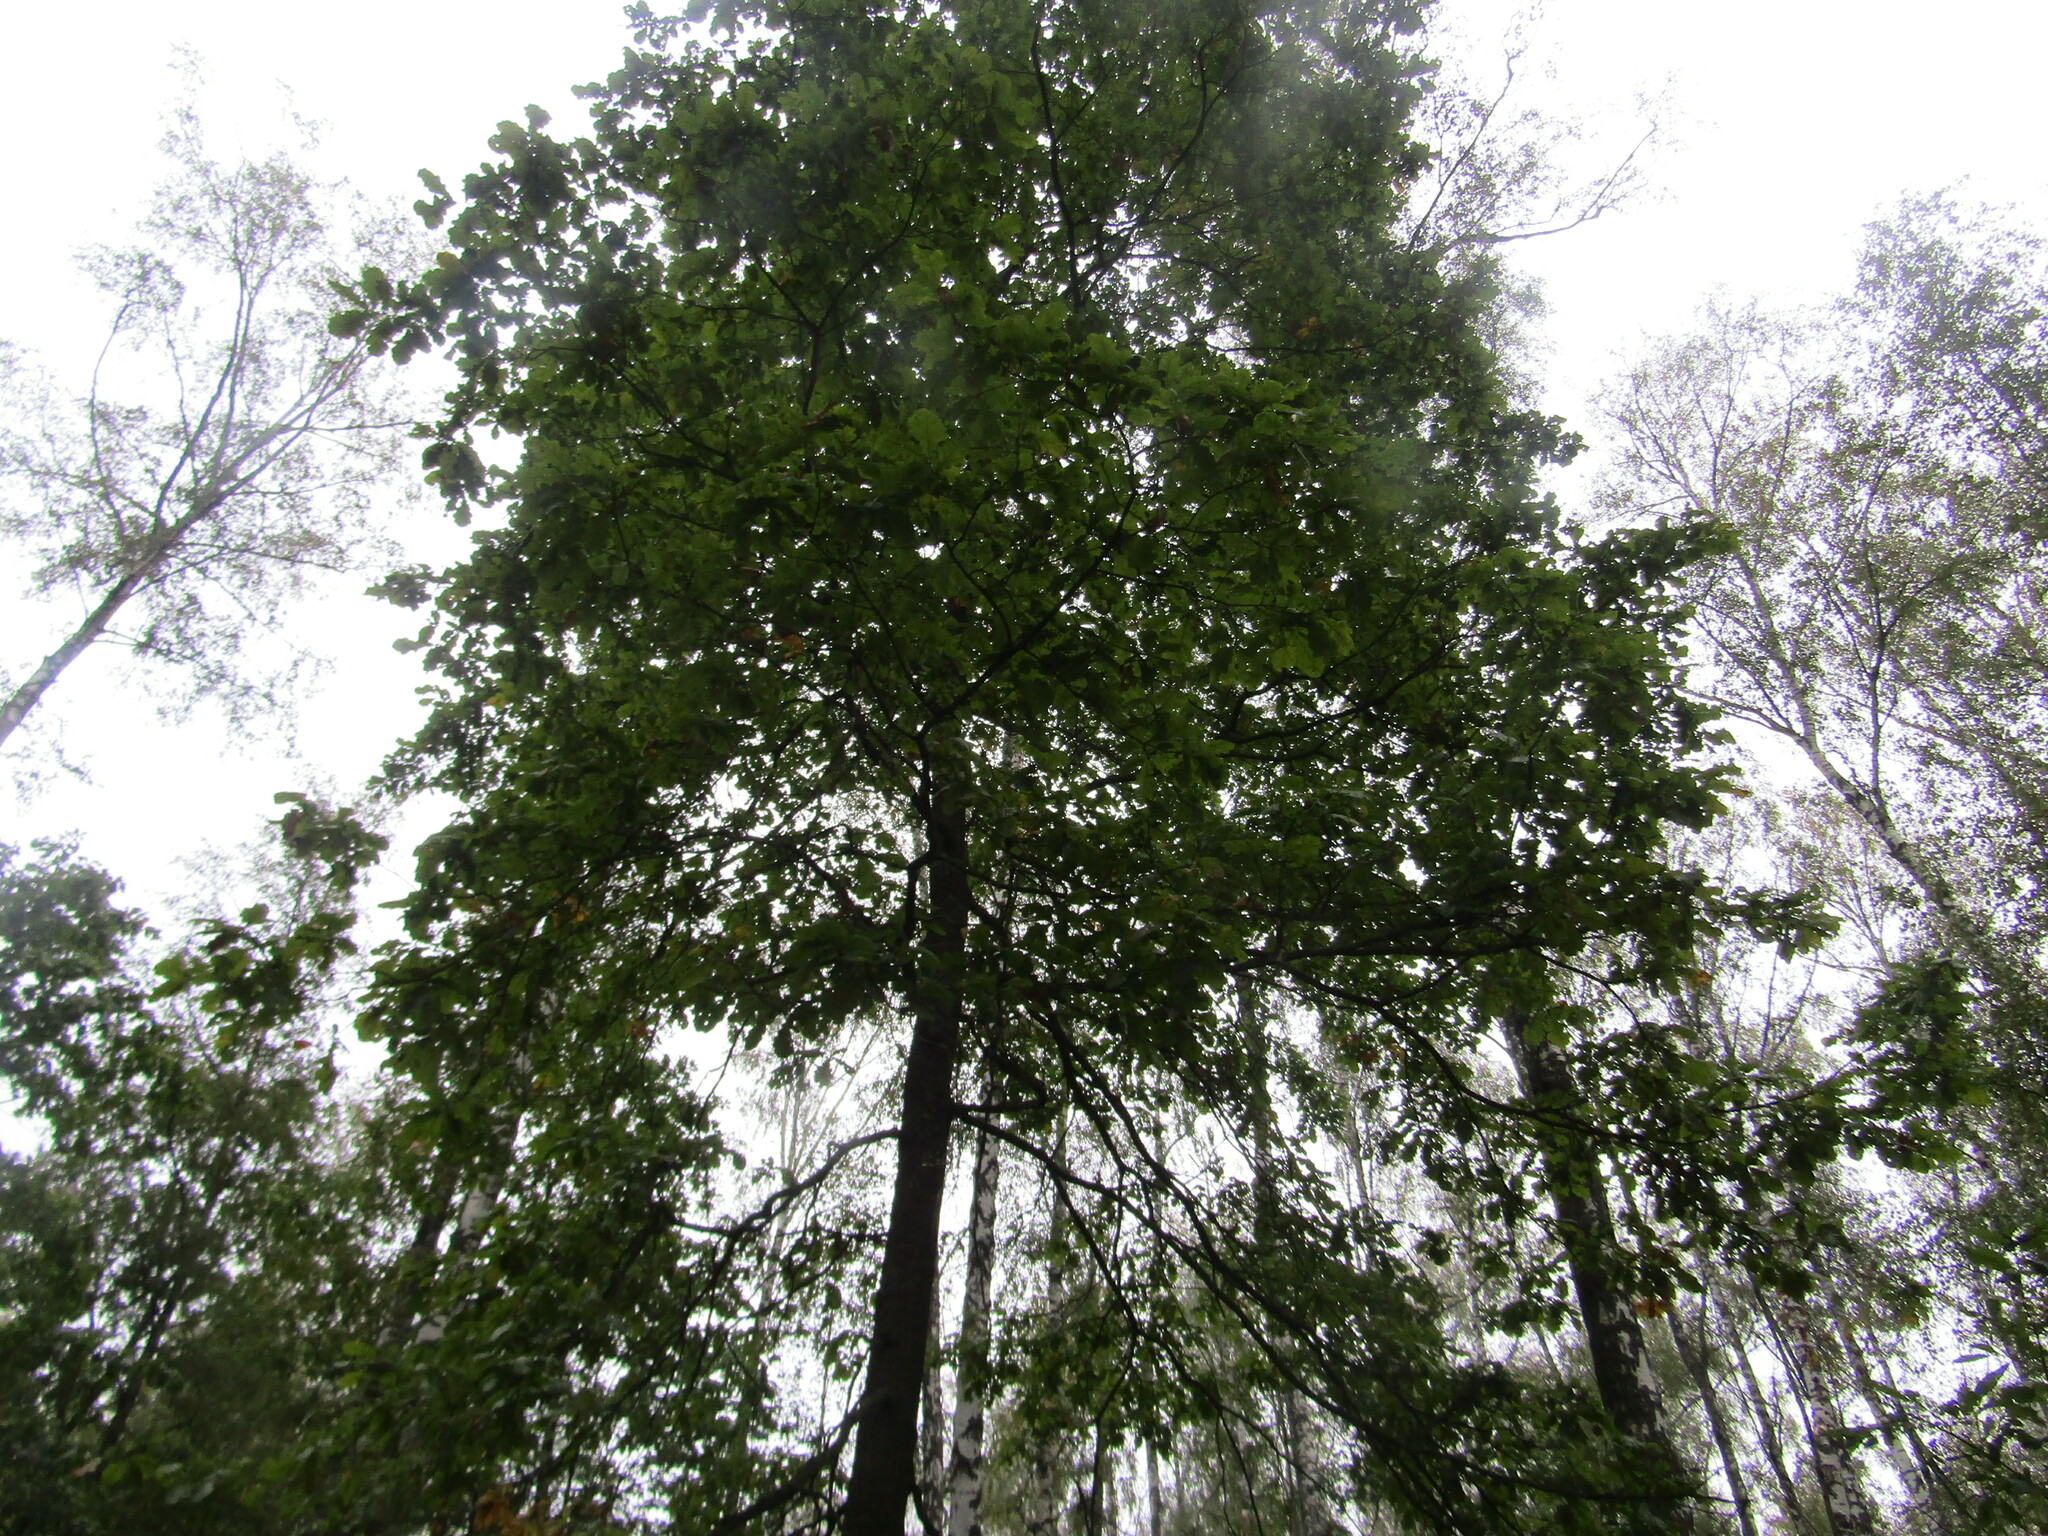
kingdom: Plantae
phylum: Tracheophyta
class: Magnoliopsida
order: Fagales
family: Fagaceae
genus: Quercus
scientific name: Quercus robur
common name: Pedunculate oak
